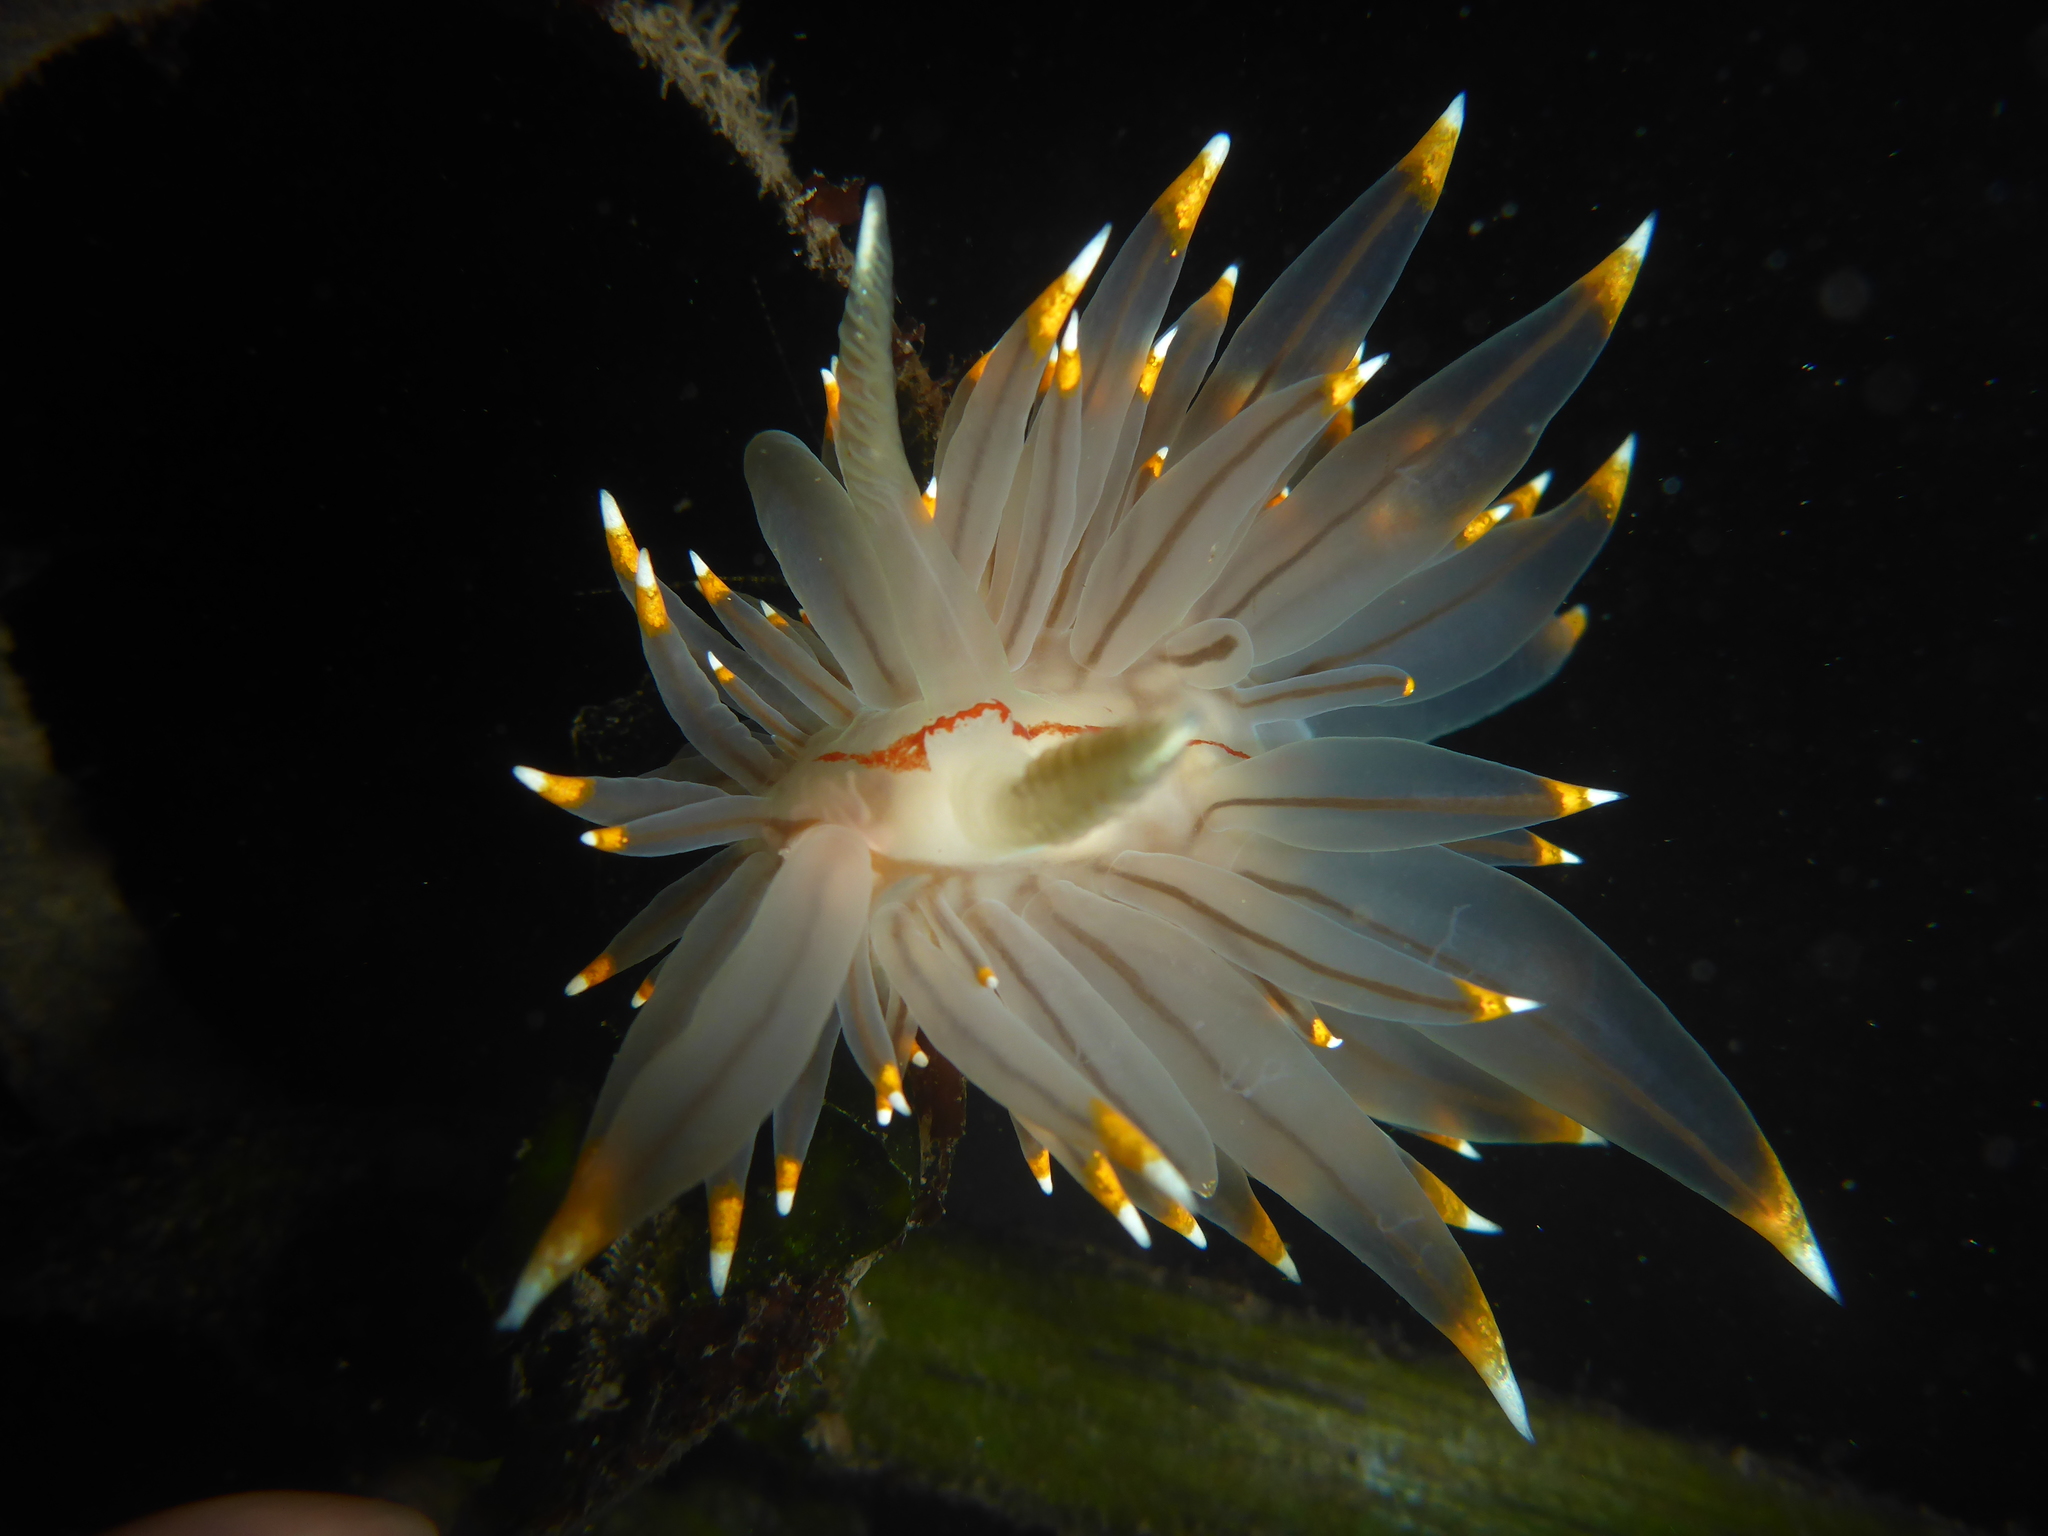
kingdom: Animalia
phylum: Mollusca
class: Gastropoda
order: Nudibranchia
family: Janolidae
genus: Antiopella
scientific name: Antiopella fusca
